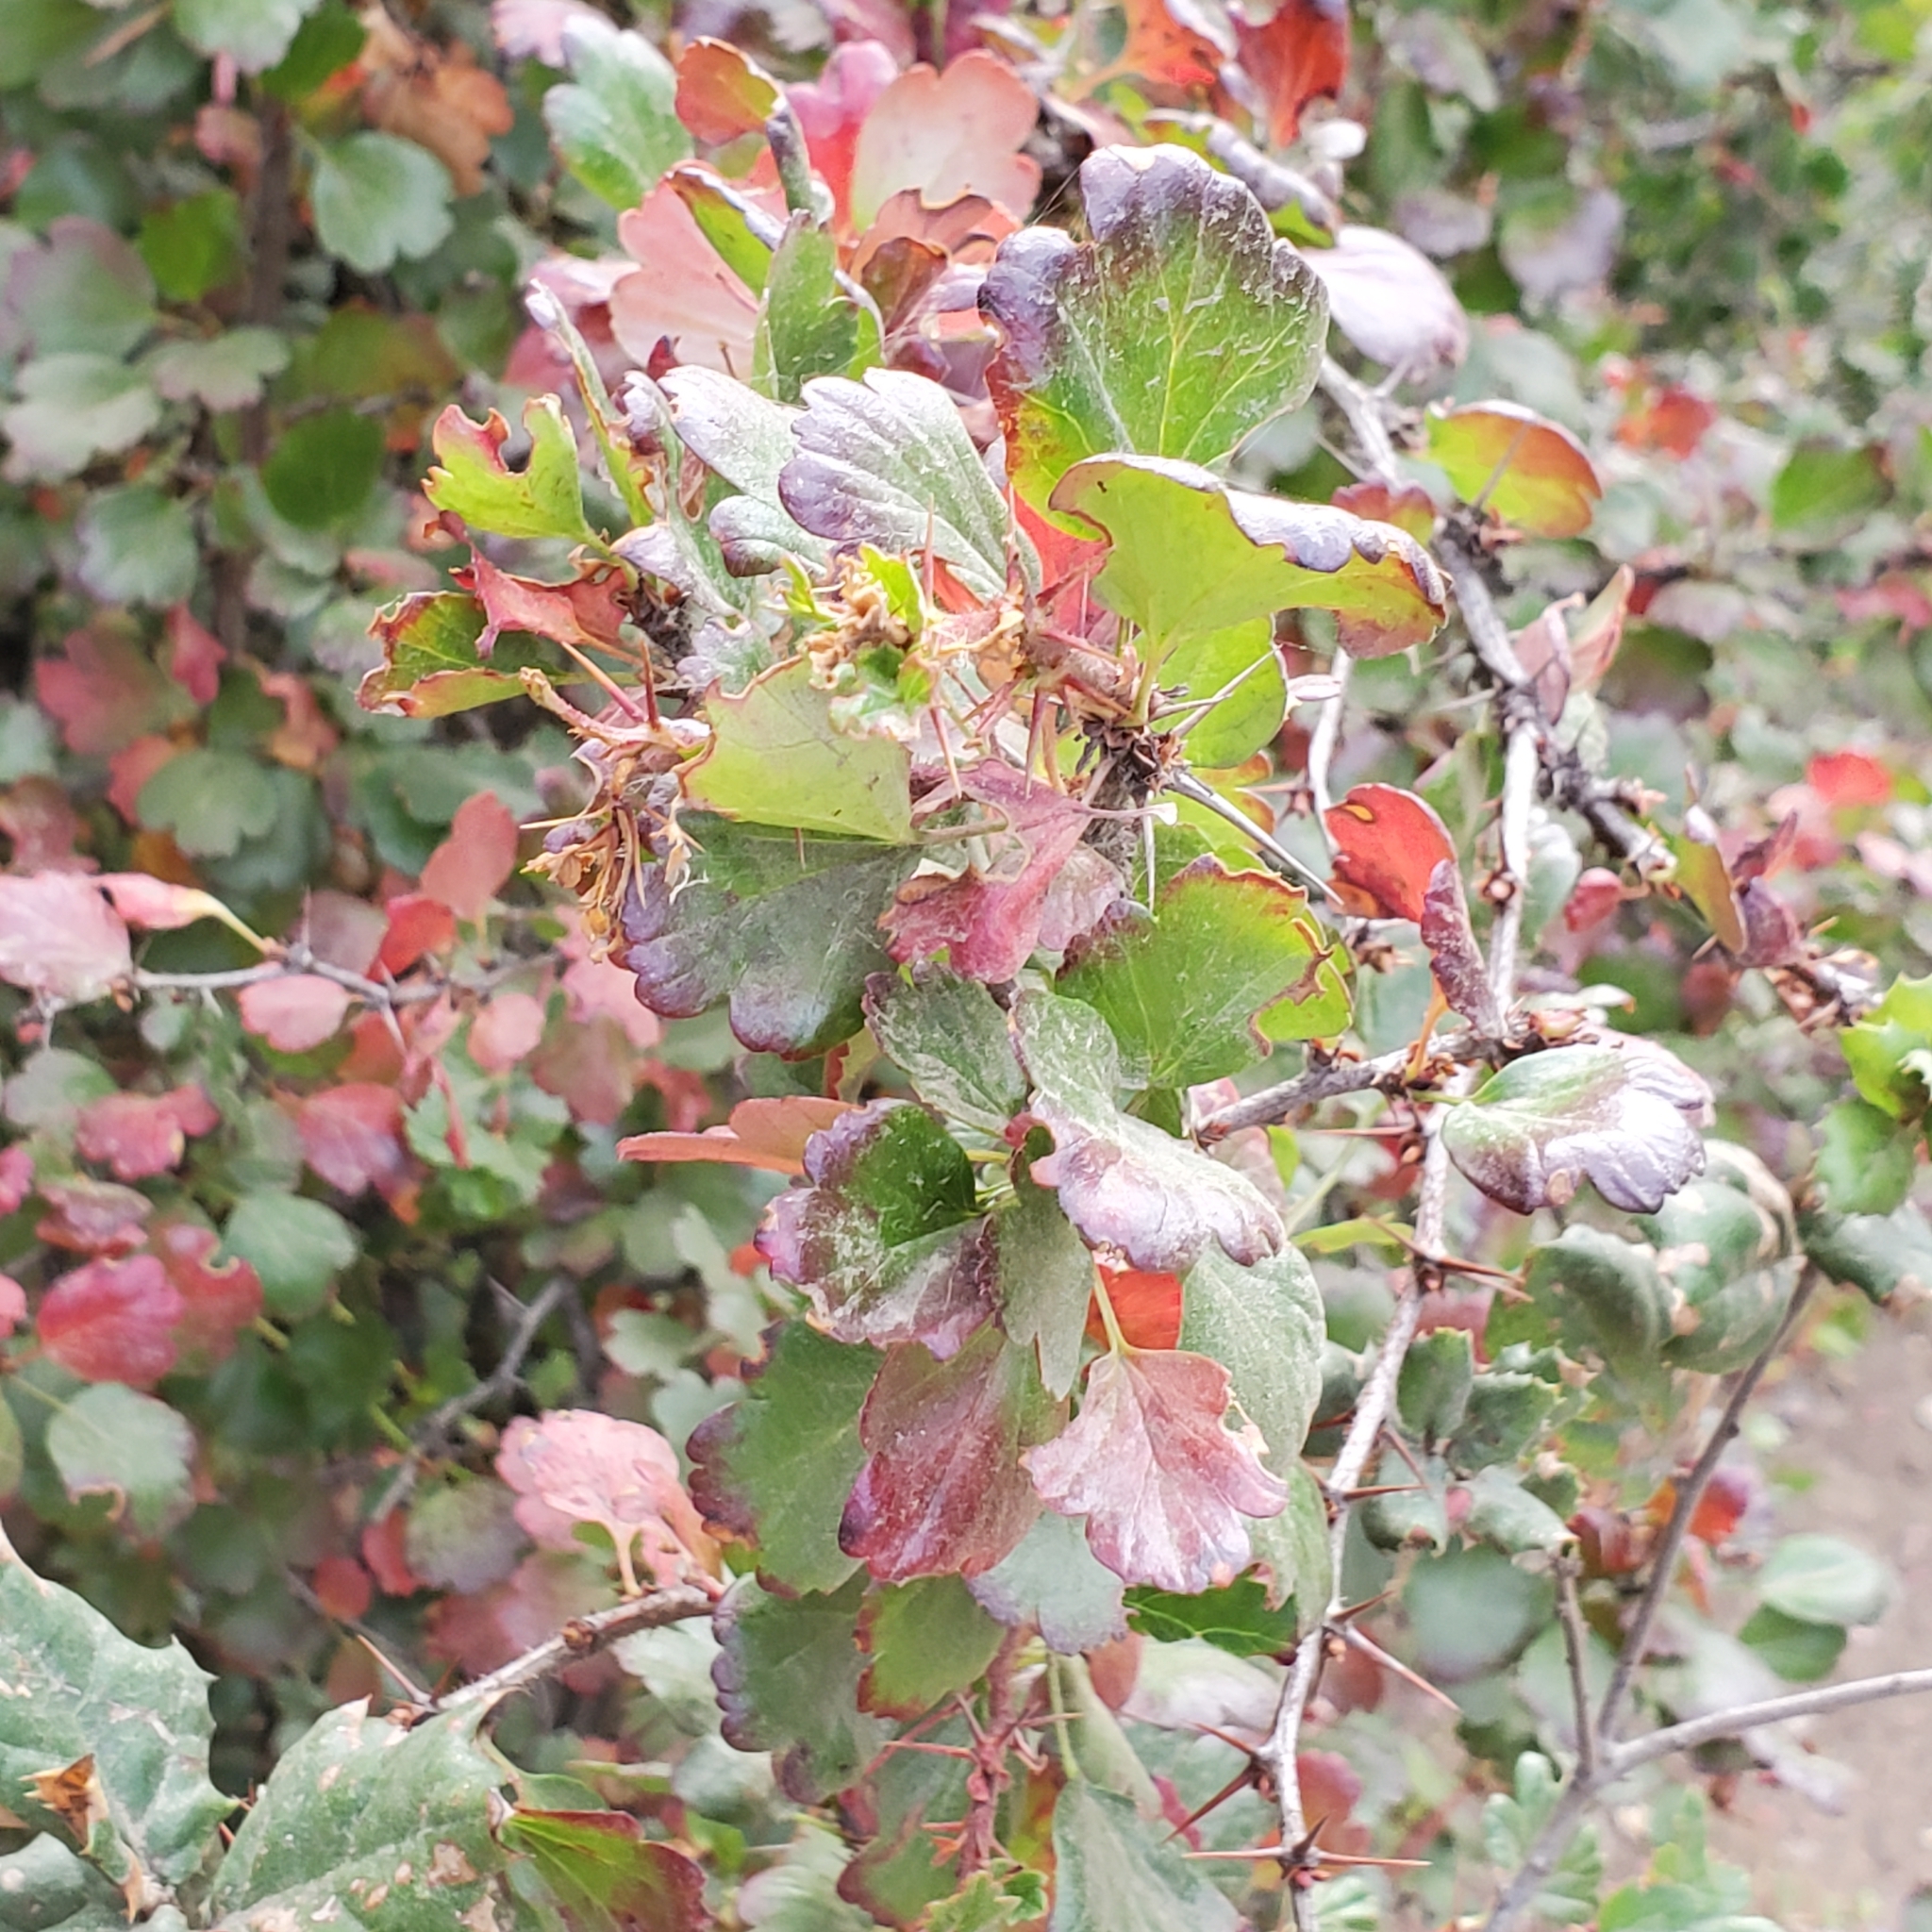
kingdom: Plantae
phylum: Tracheophyta
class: Magnoliopsida
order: Saxifragales
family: Grossulariaceae
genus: Ribes
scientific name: Ribes speciosum
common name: Fuchsia-flower gooseberry
